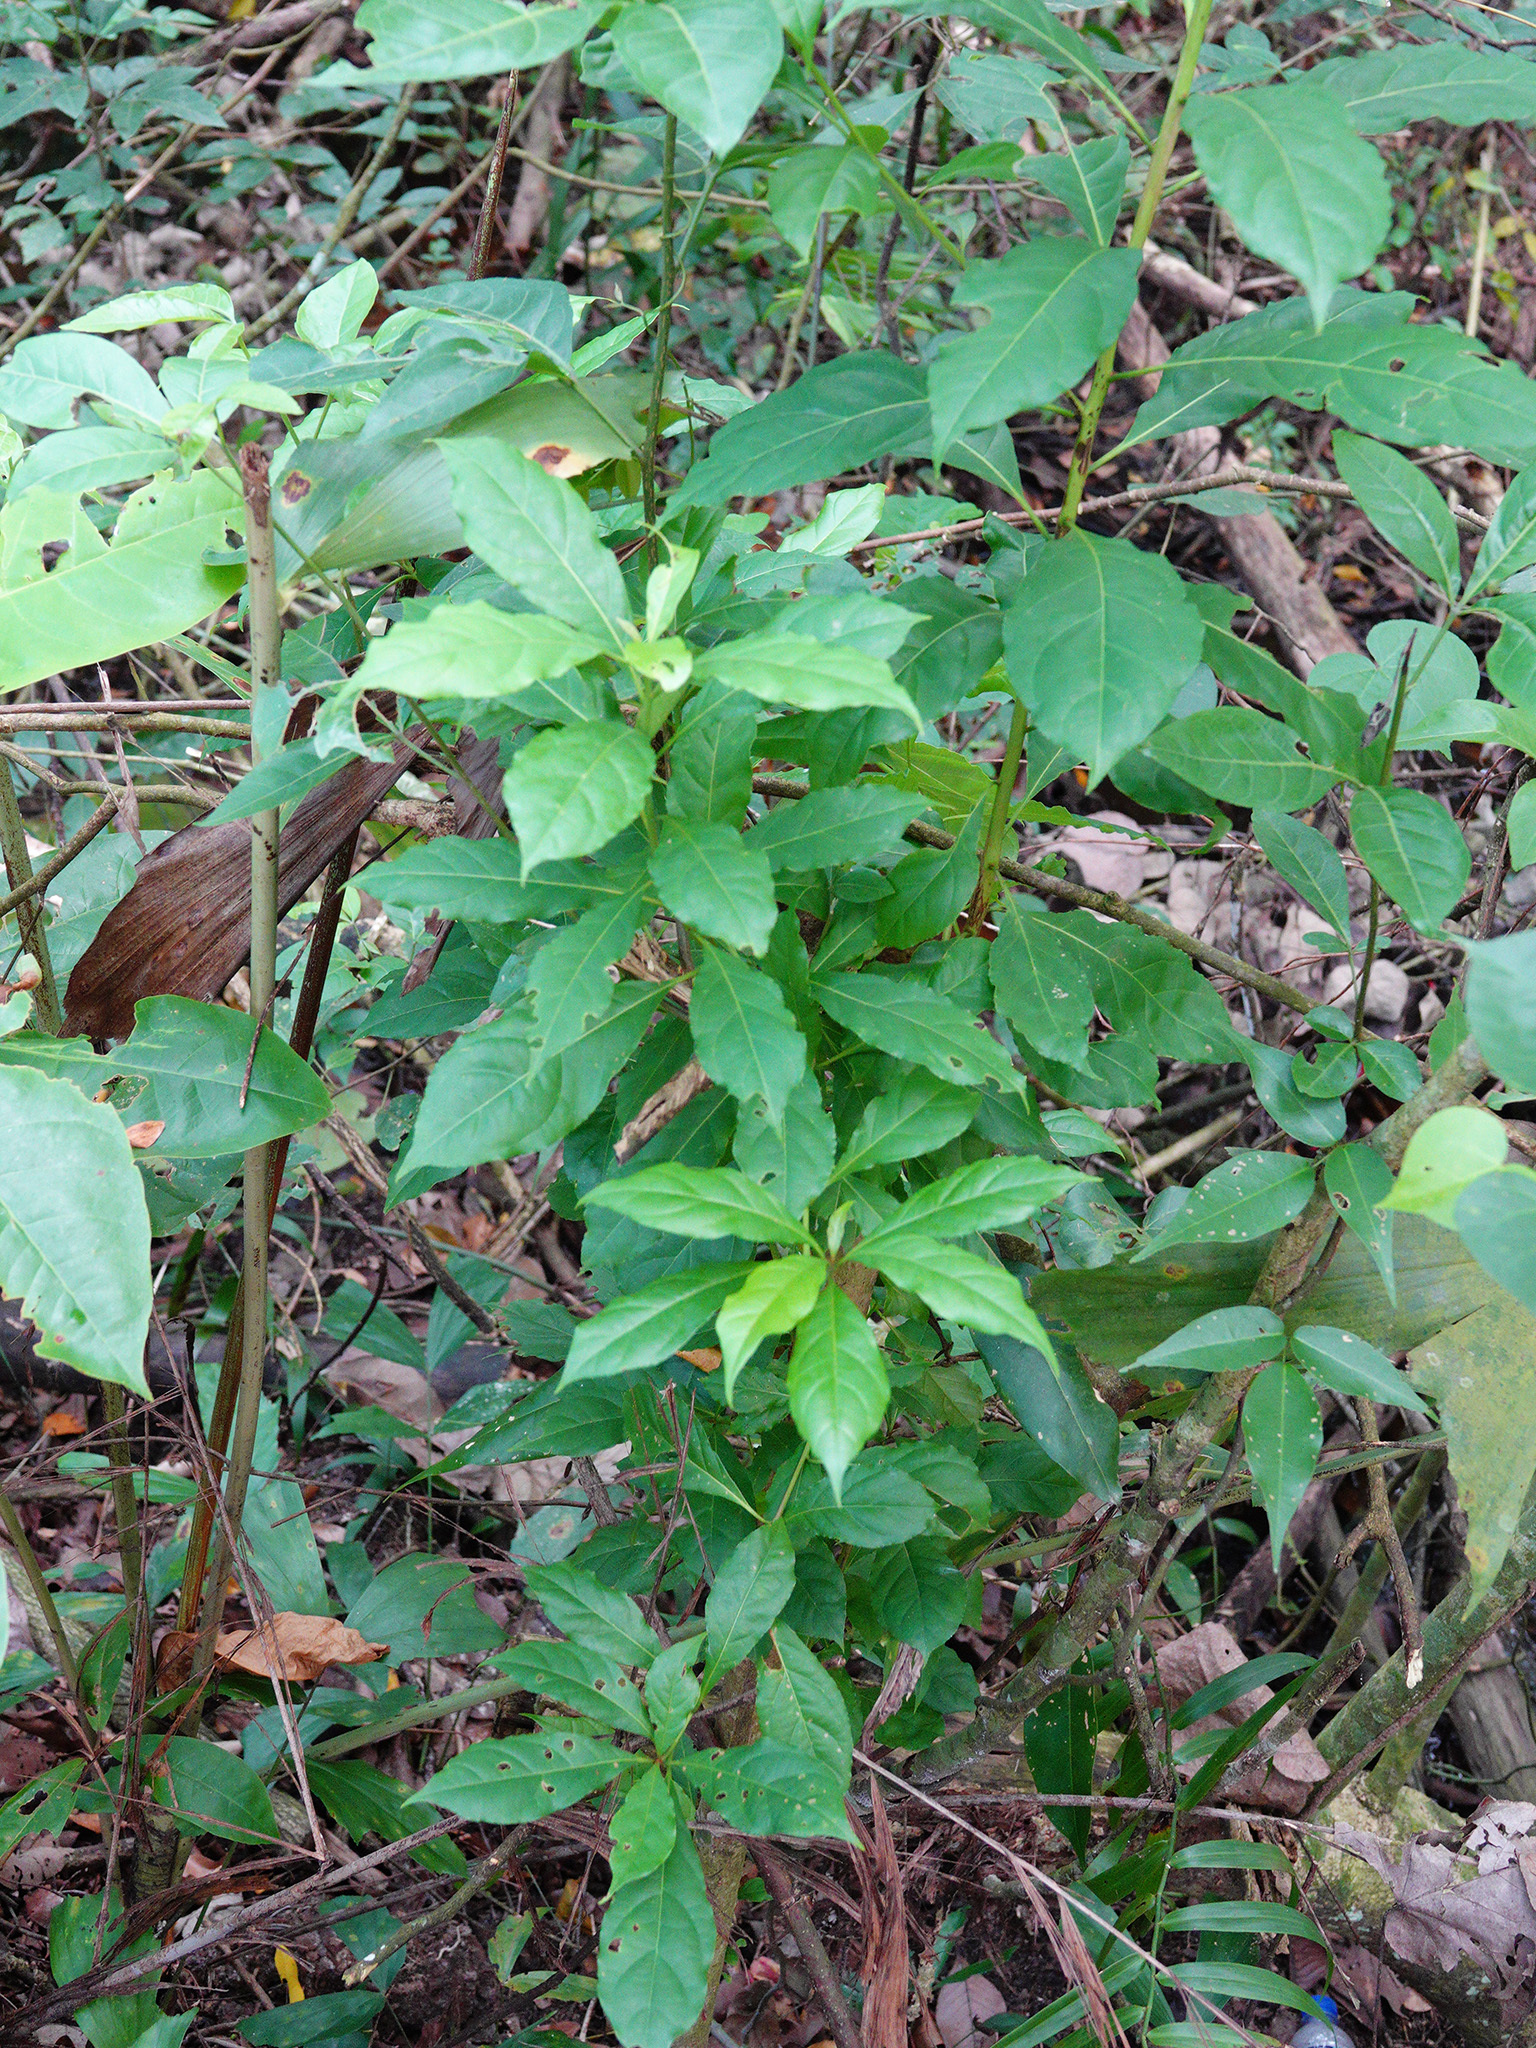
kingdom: Plantae
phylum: Tracheophyta
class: Magnoliopsida
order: Myrtales
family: Combretaceae
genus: Terminalia
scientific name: Terminalia calamansanai
